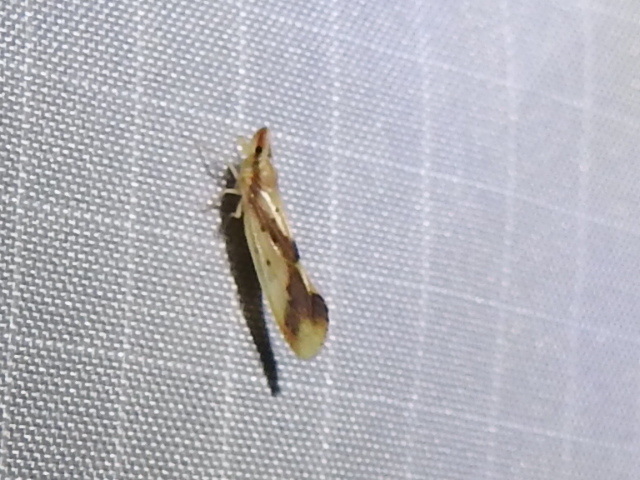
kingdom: Animalia
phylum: Arthropoda
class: Insecta
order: Hemiptera
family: Derbidae
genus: Otiocerus
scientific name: Otiocerus reaumurii
